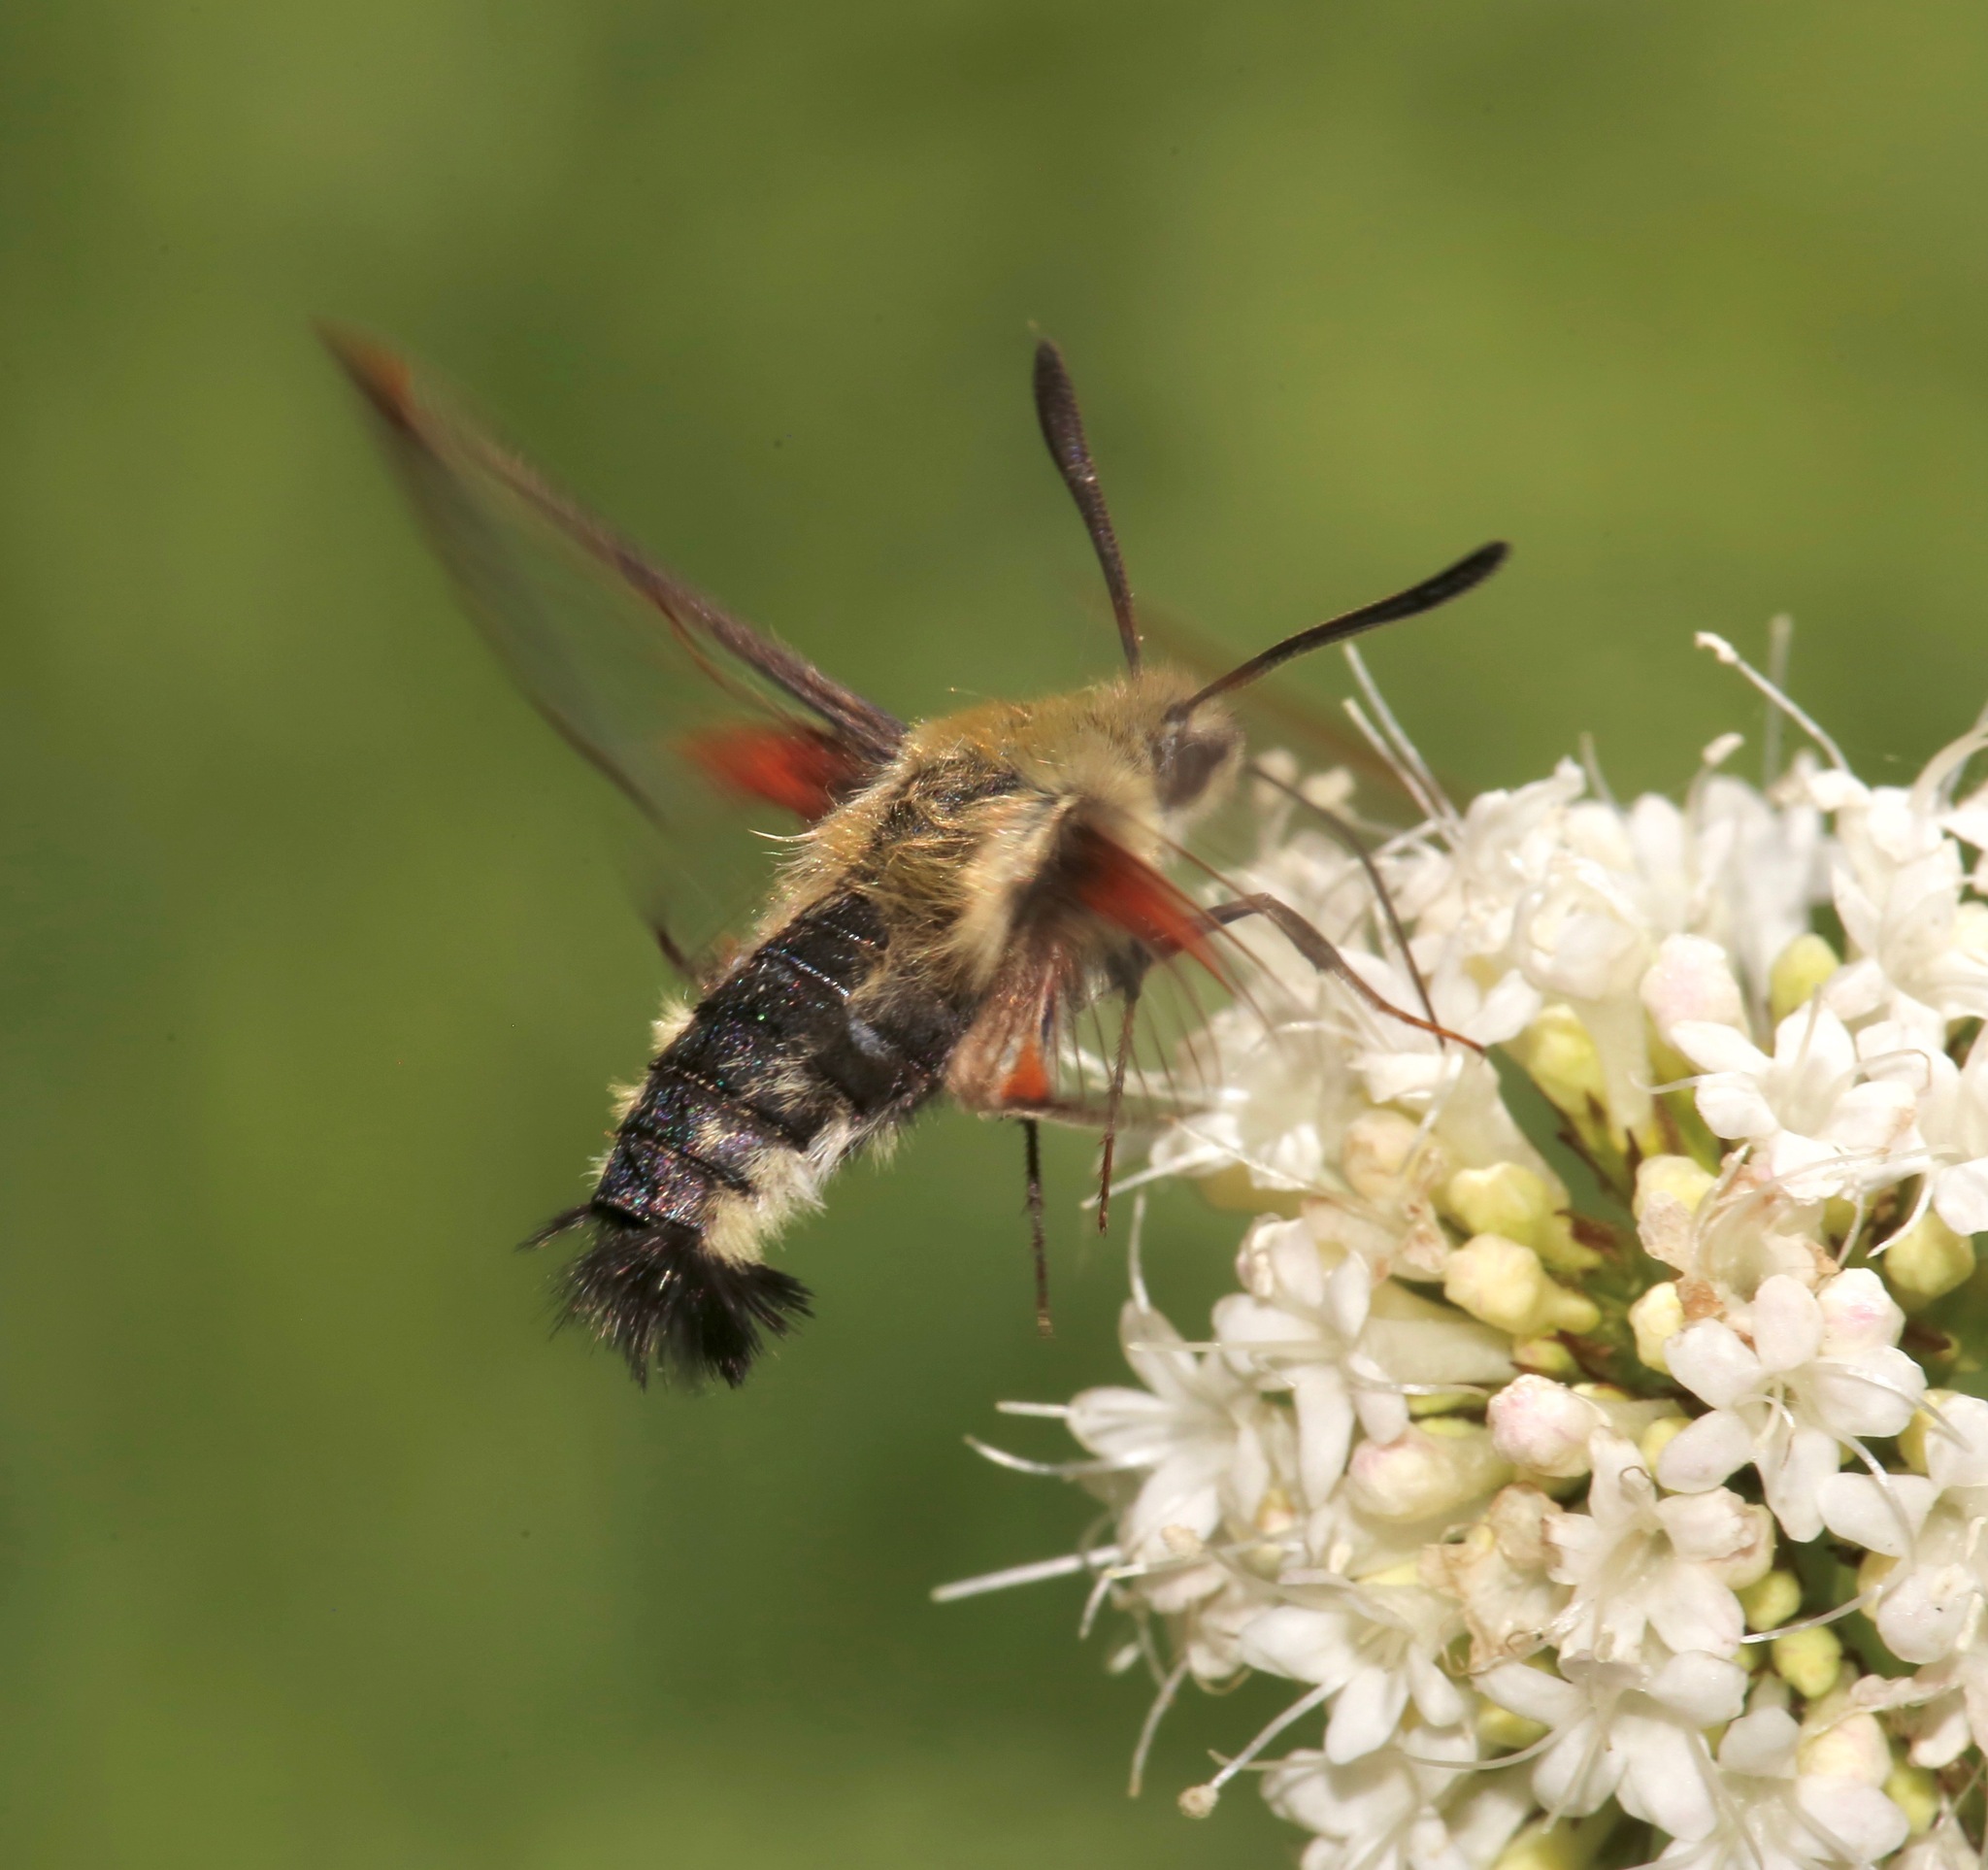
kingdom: Animalia
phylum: Arthropoda
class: Insecta
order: Lepidoptera
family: Sphingidae
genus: Hemaris
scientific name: Hemaris thetis
